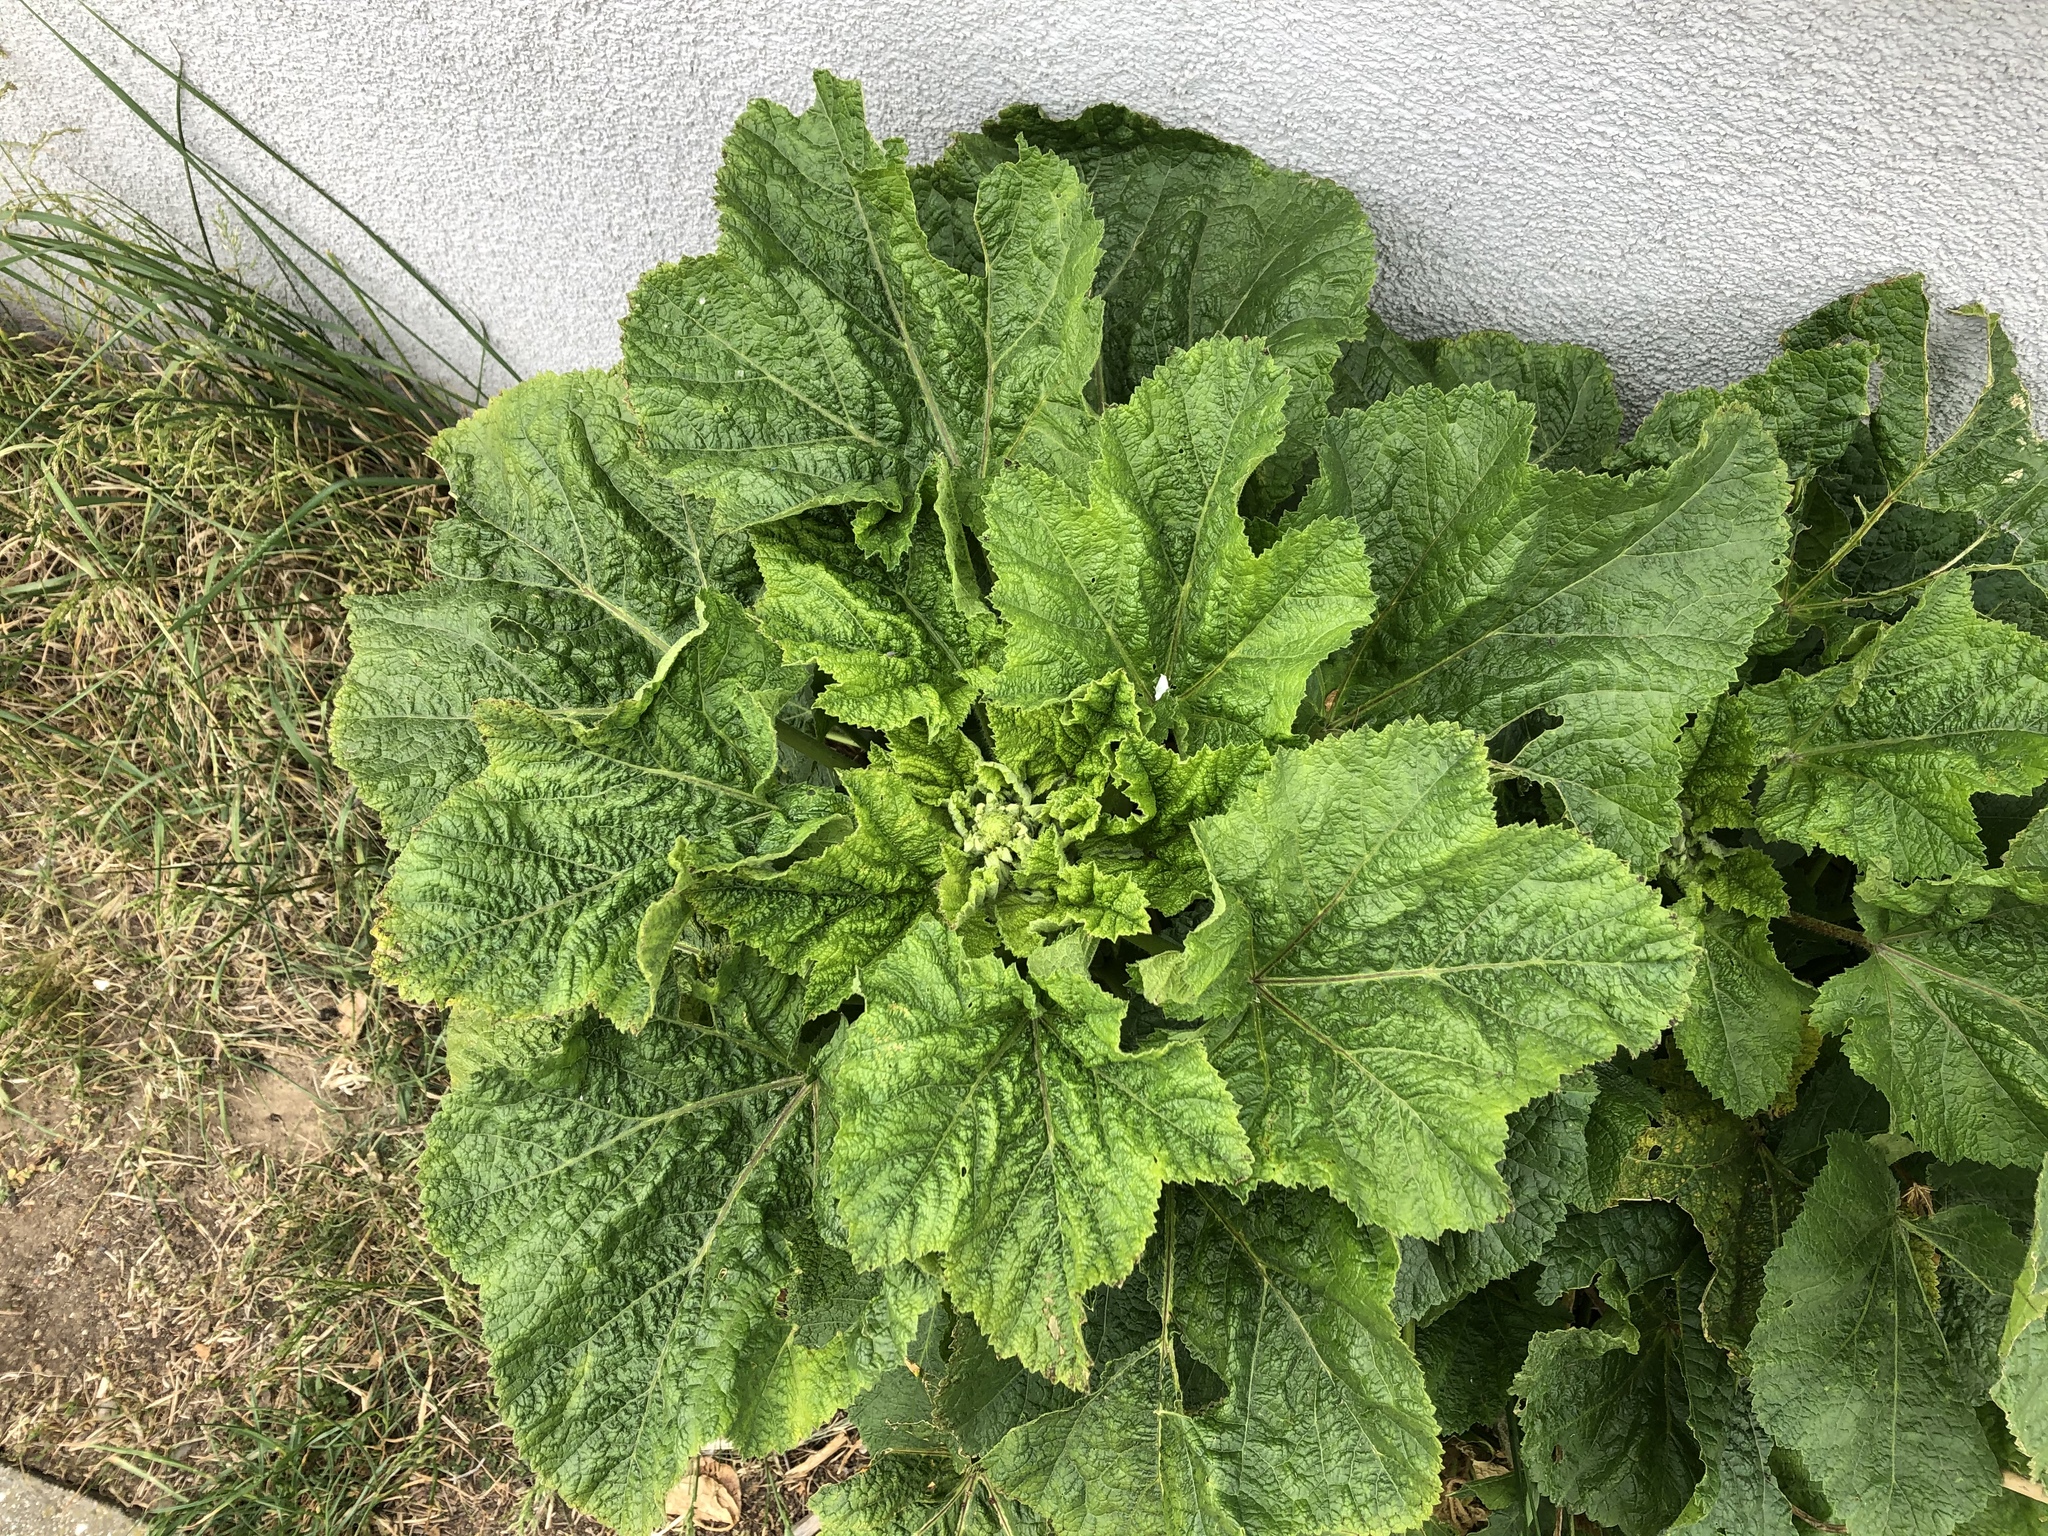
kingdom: Plantae
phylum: Tracheophyta
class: Magnoliopsida
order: Malvales
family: Malvaceae
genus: Alcea
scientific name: Alcea rosea
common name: Hollyhock
